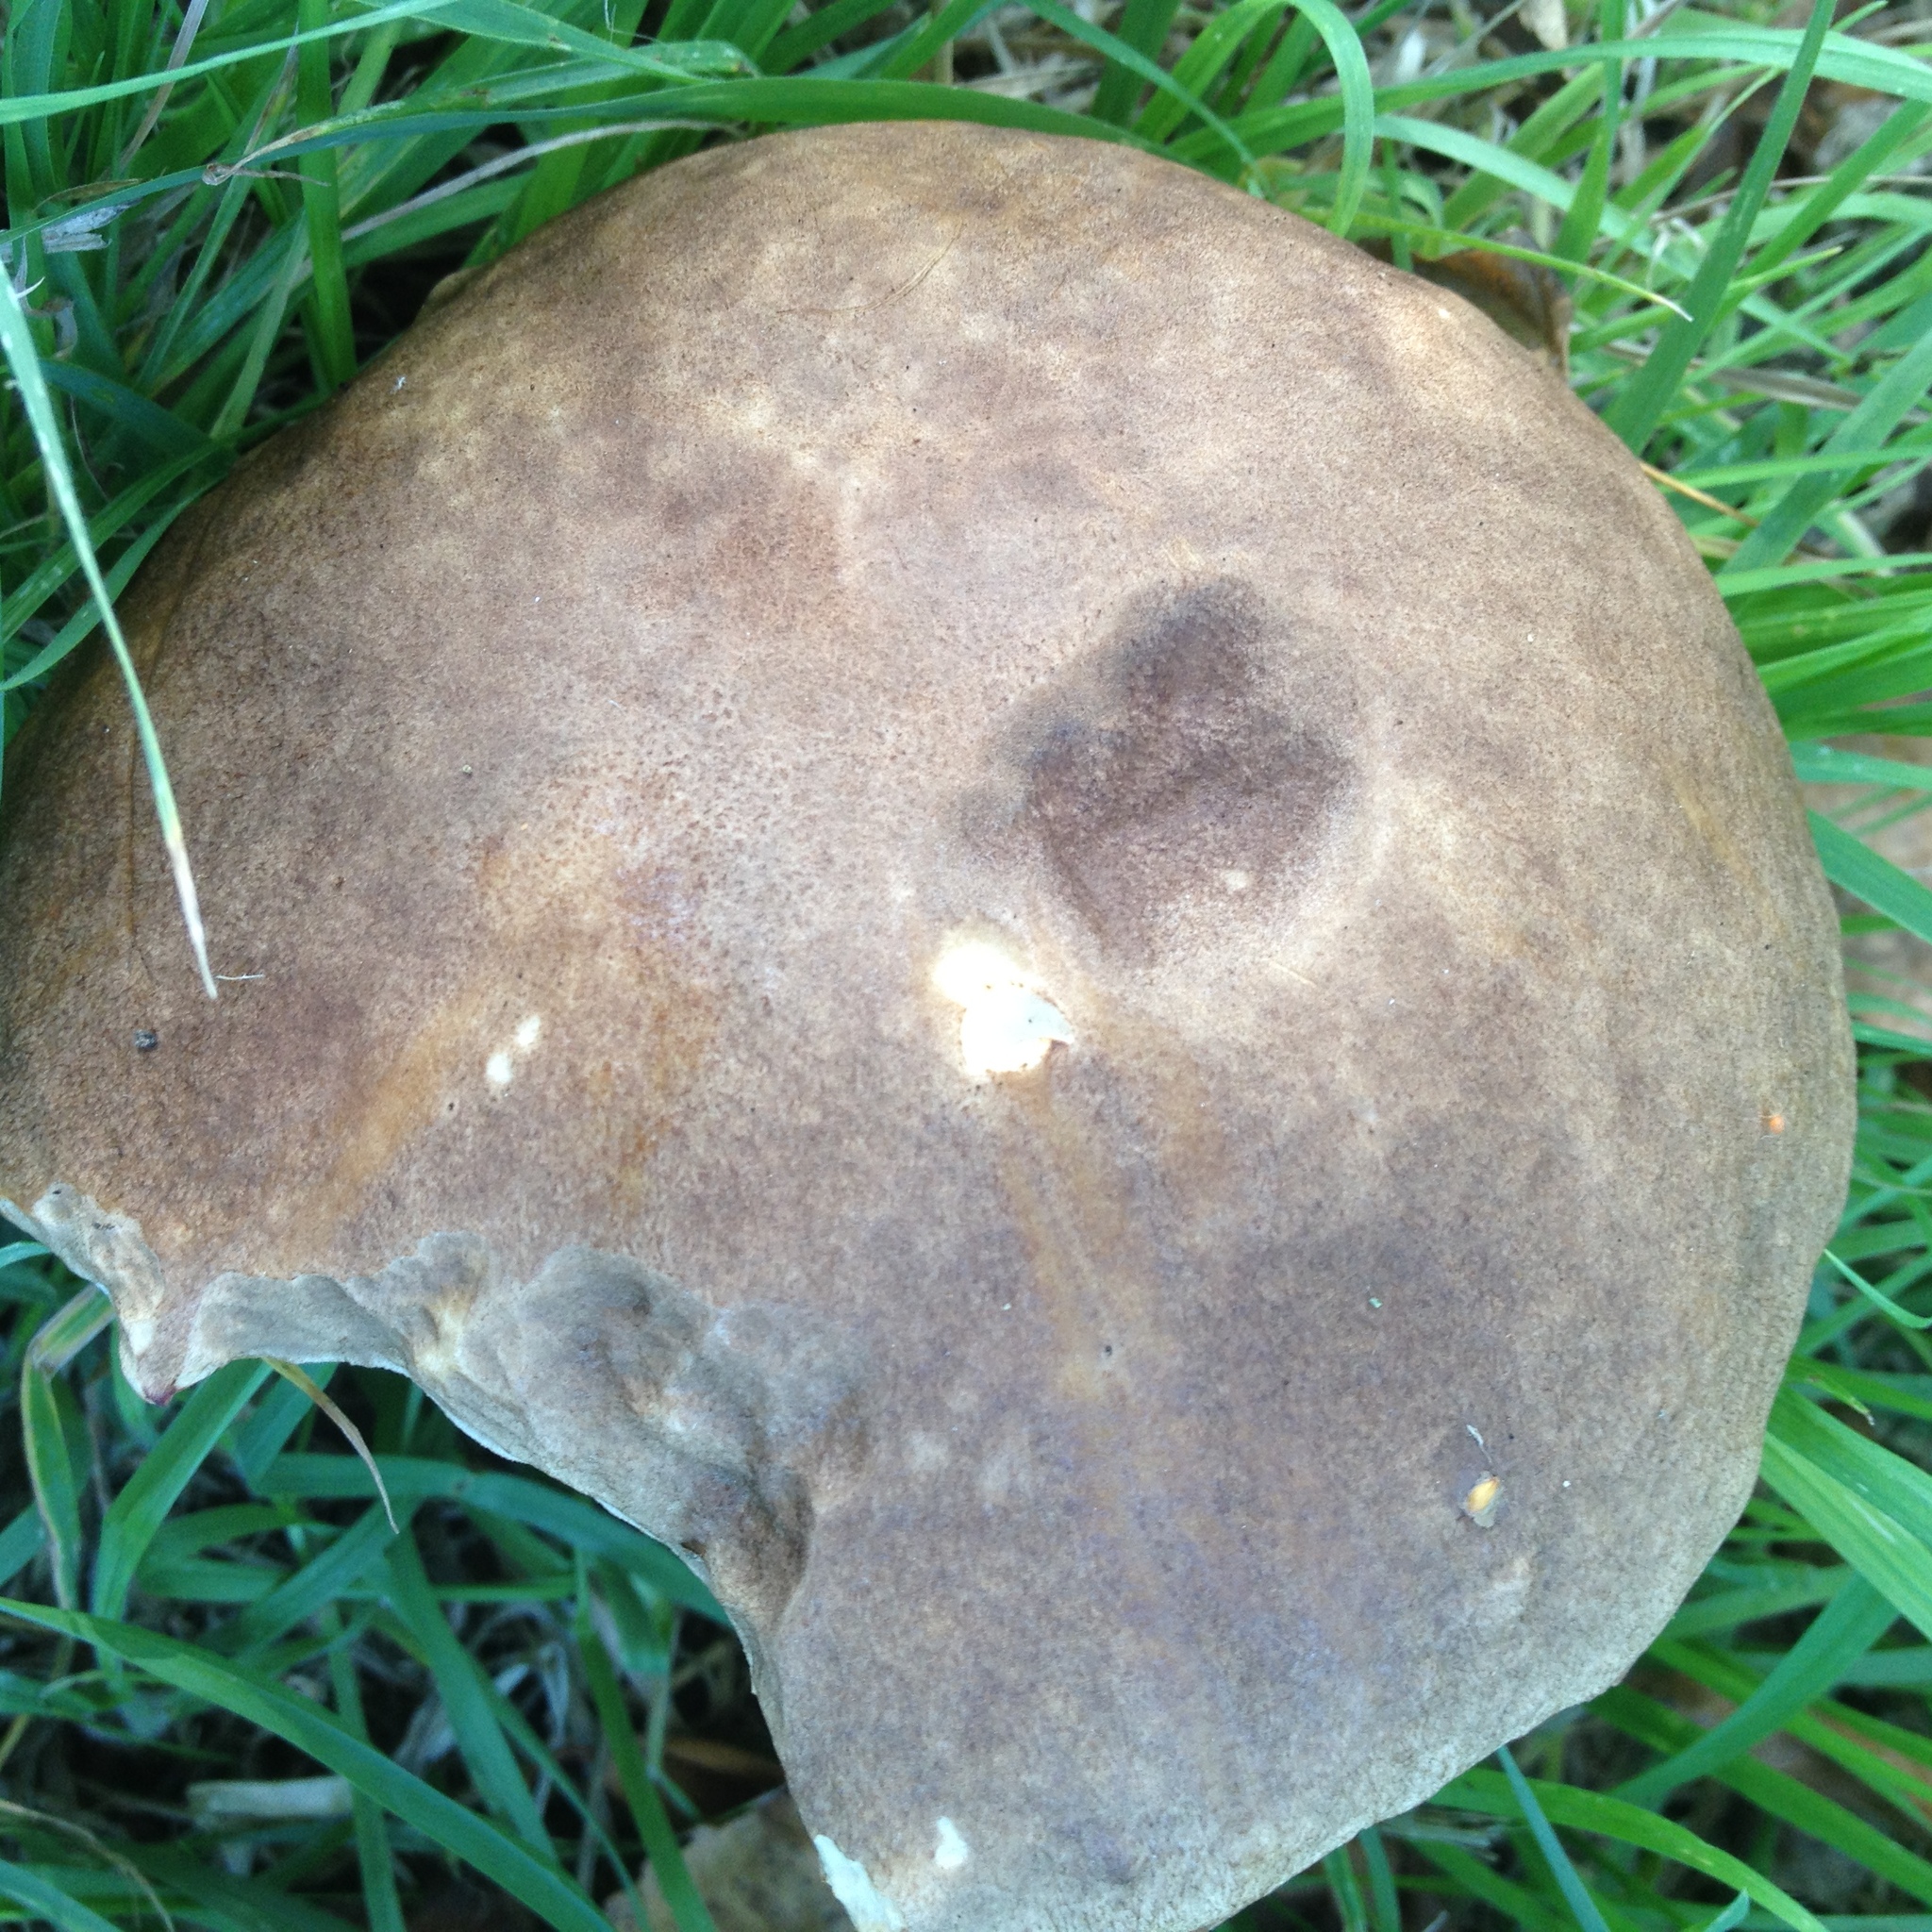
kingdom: Fungi
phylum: Basidiomycota
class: Agaricomycetes
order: Boletales
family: Boletaceae
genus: Leccinum
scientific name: Leccinum scabrum
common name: Blushing bolete
